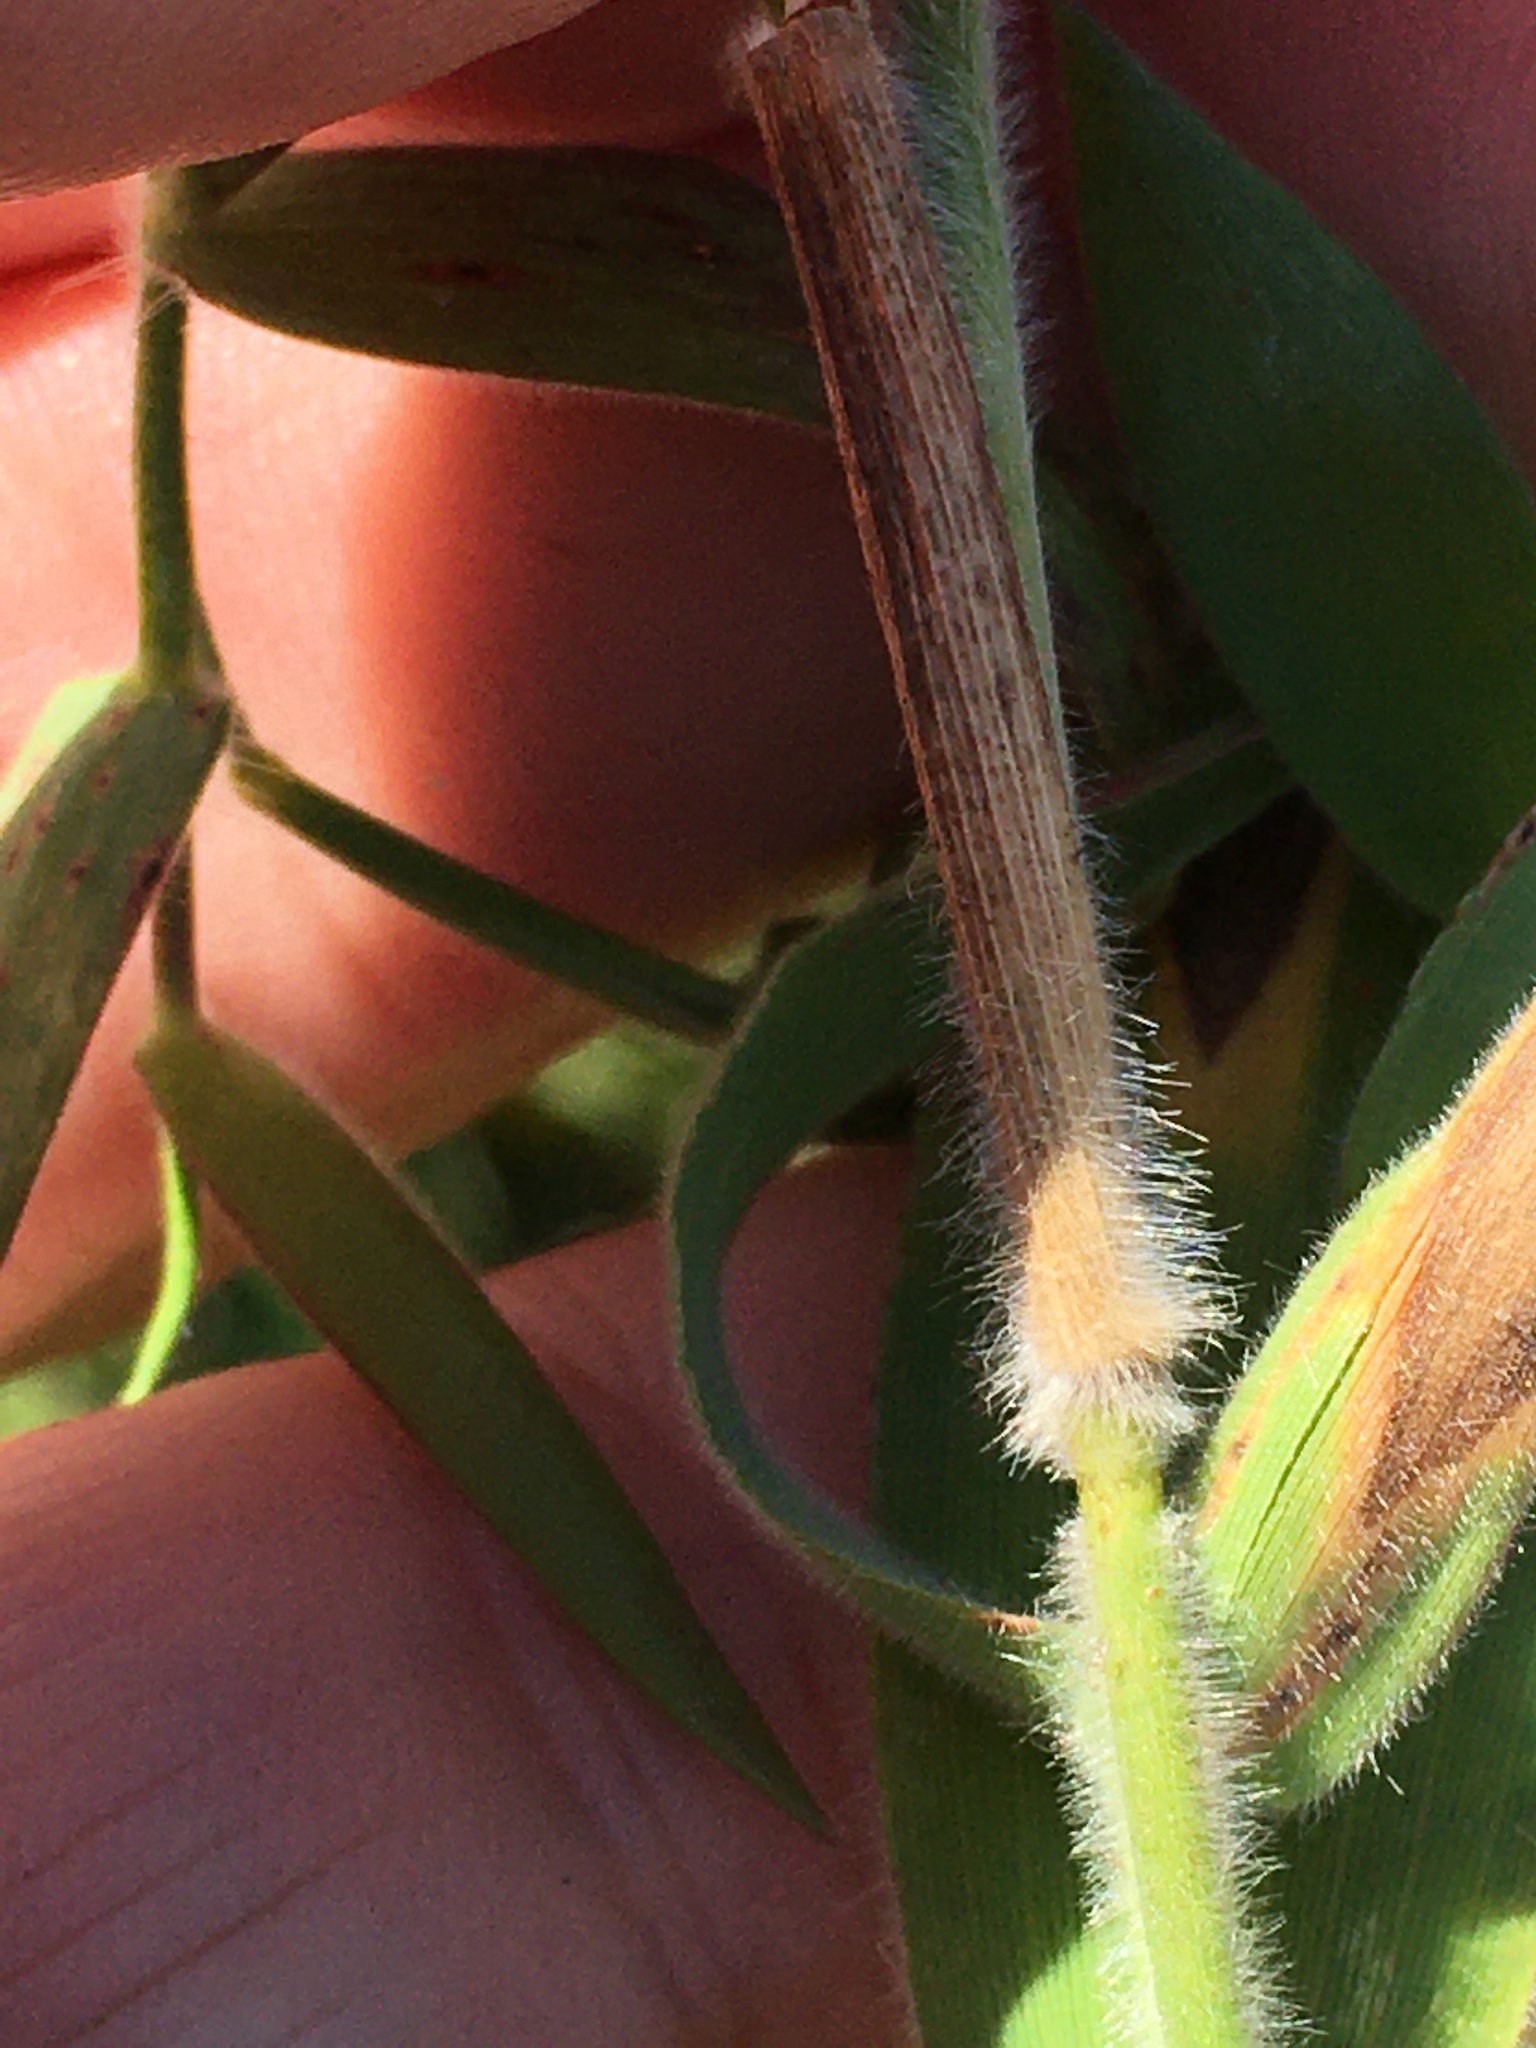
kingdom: Plantae
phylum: Tracheophyta
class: Liliopsida
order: Poales
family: Poaceae
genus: Dichanthelium
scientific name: Dichanthelium scoparium
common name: Velvety panic grass
